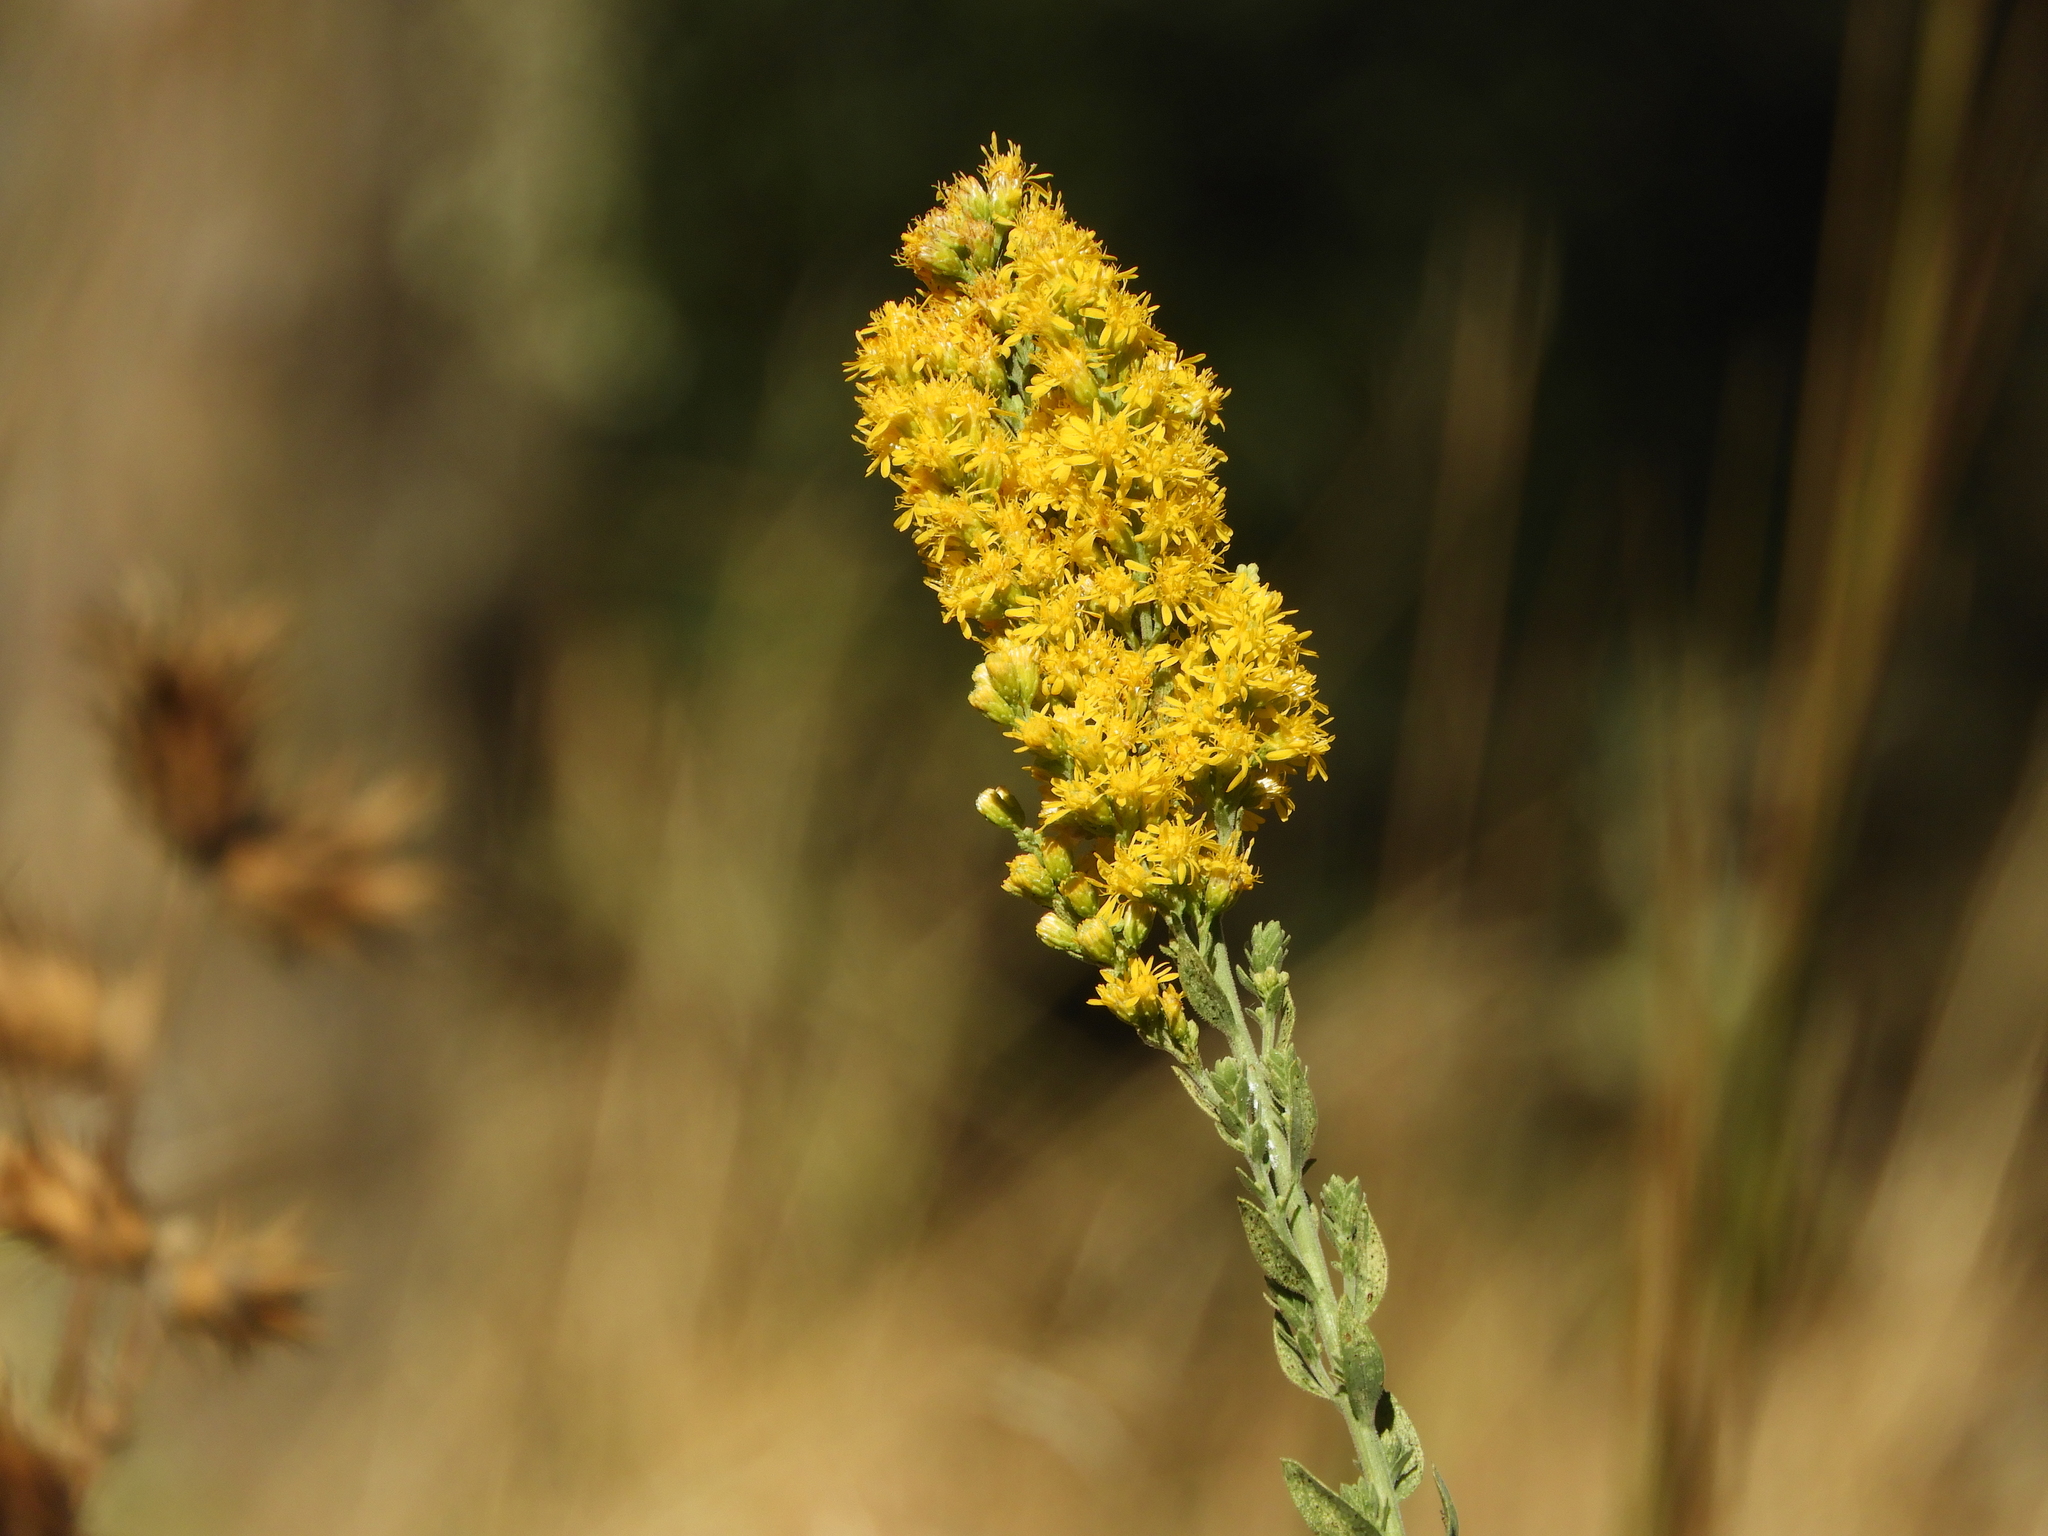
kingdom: Plantae
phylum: Tracheophyta
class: Magnoliopsida
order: Asterales
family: Asteraceae
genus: Solidago
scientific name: Solidago velutina
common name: Three-nerve goldenrod
